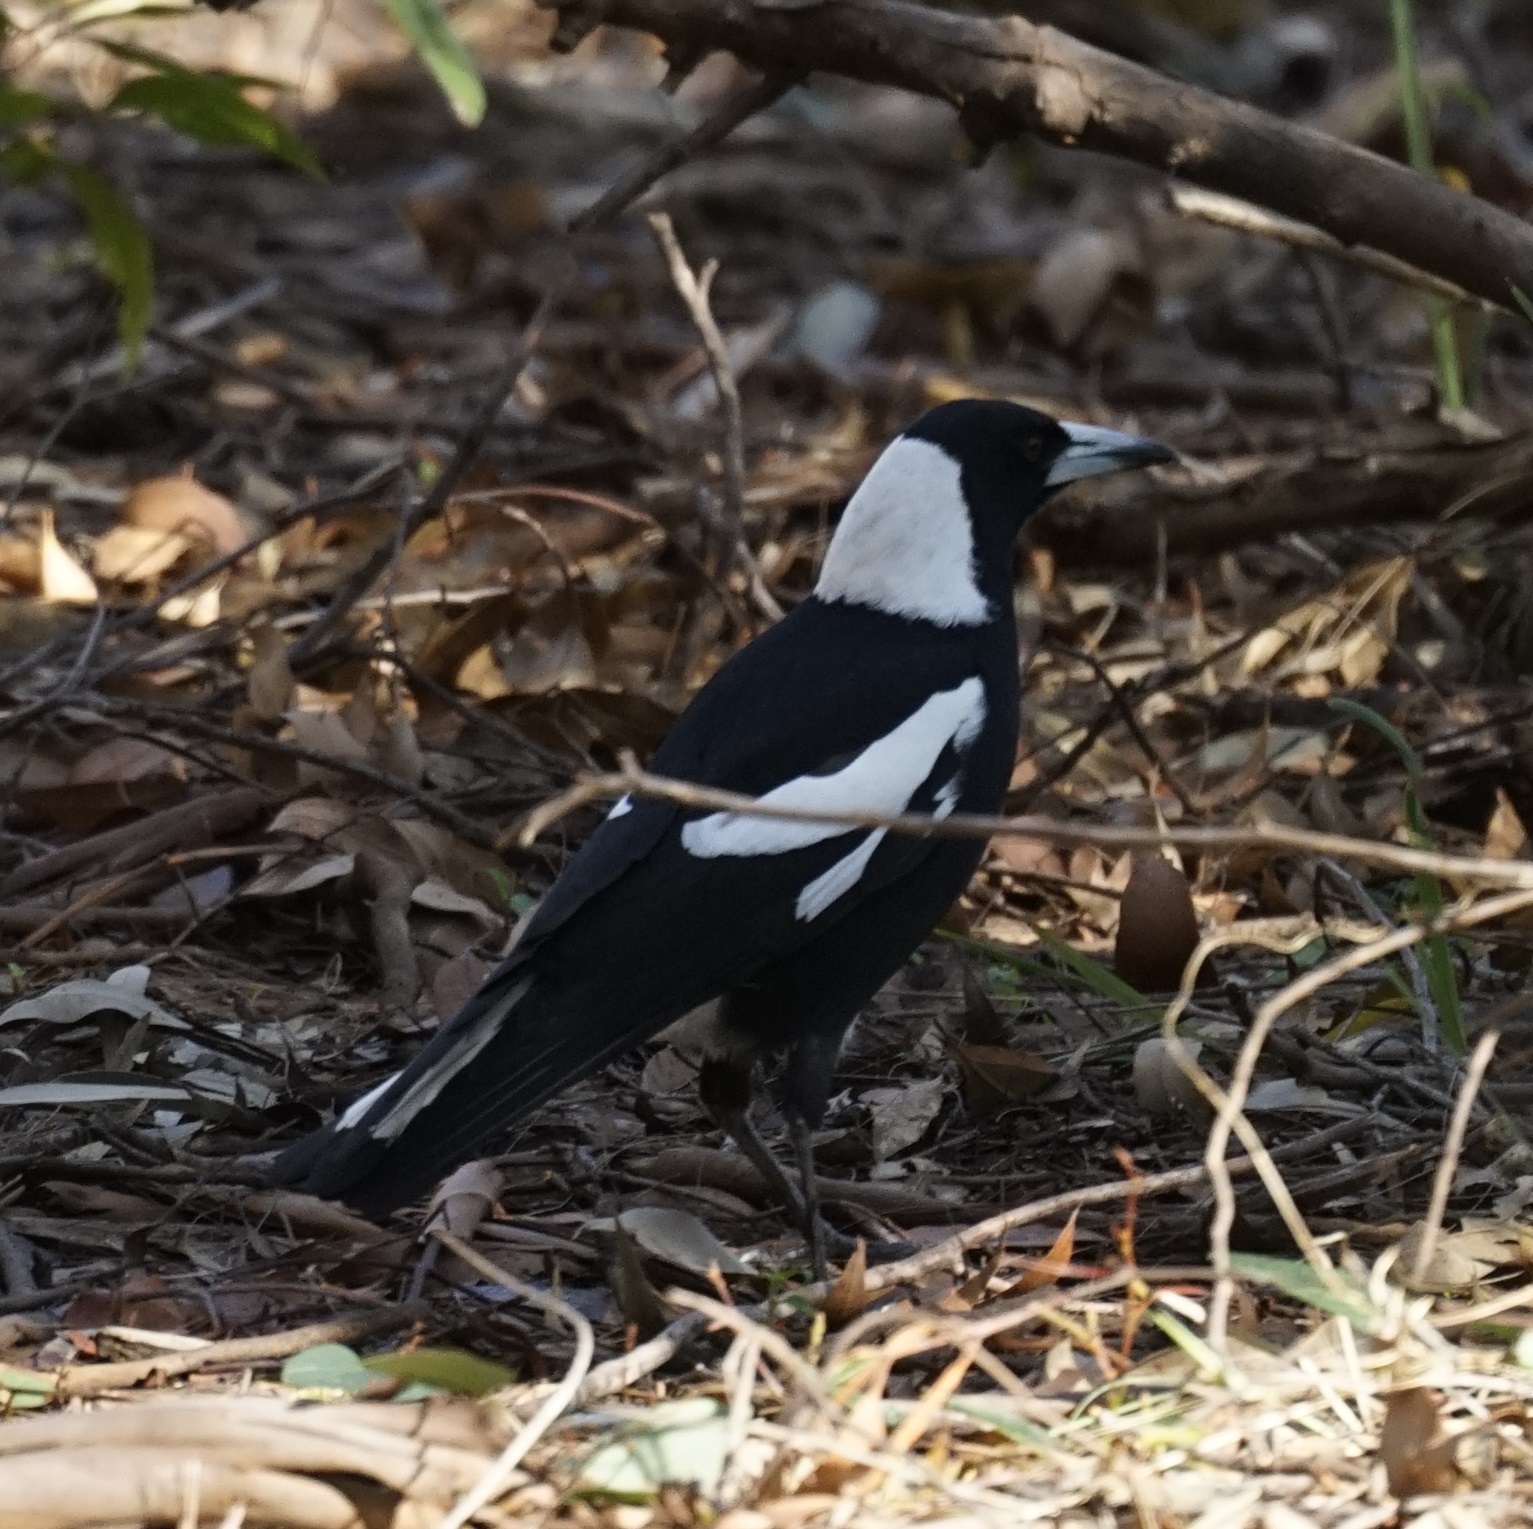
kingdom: Animalia
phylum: Chordata
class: Aves
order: Passeriformes
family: Cracticidae
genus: Gymnorhina
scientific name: Gymnorhina tibicen
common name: Australian magpie
